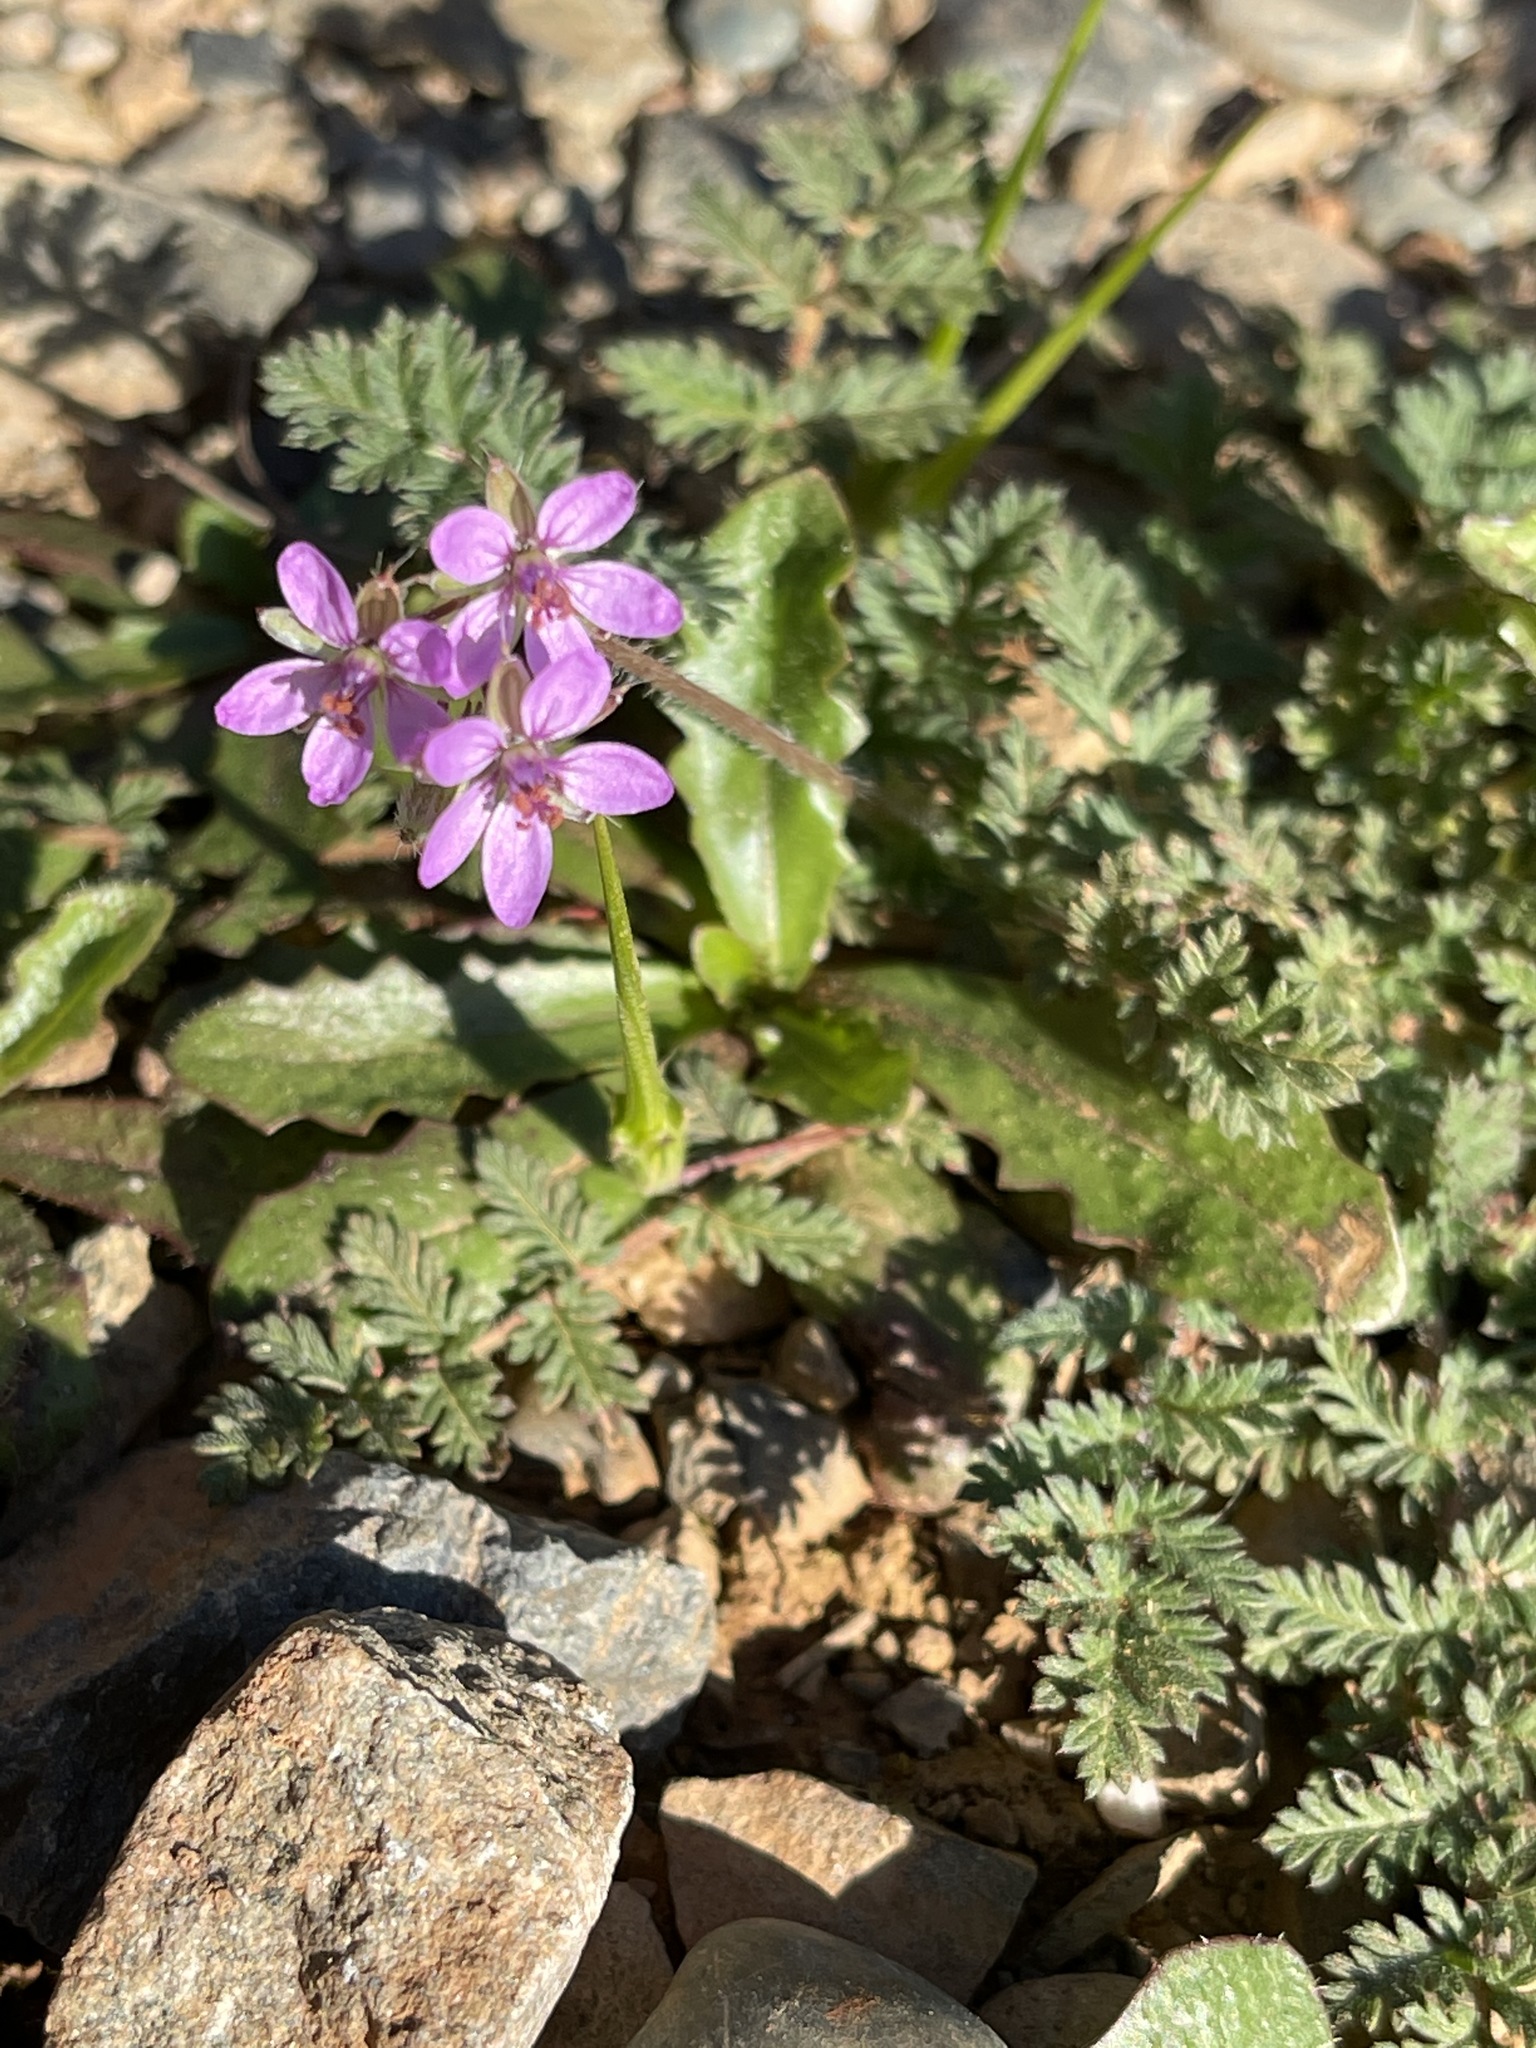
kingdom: Plantae
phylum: Tracheophyta
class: Magnoliopsida
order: Geraniales
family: Geraniaceae
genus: Erodium
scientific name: Erodium cicutarium
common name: Common stork's-bill
